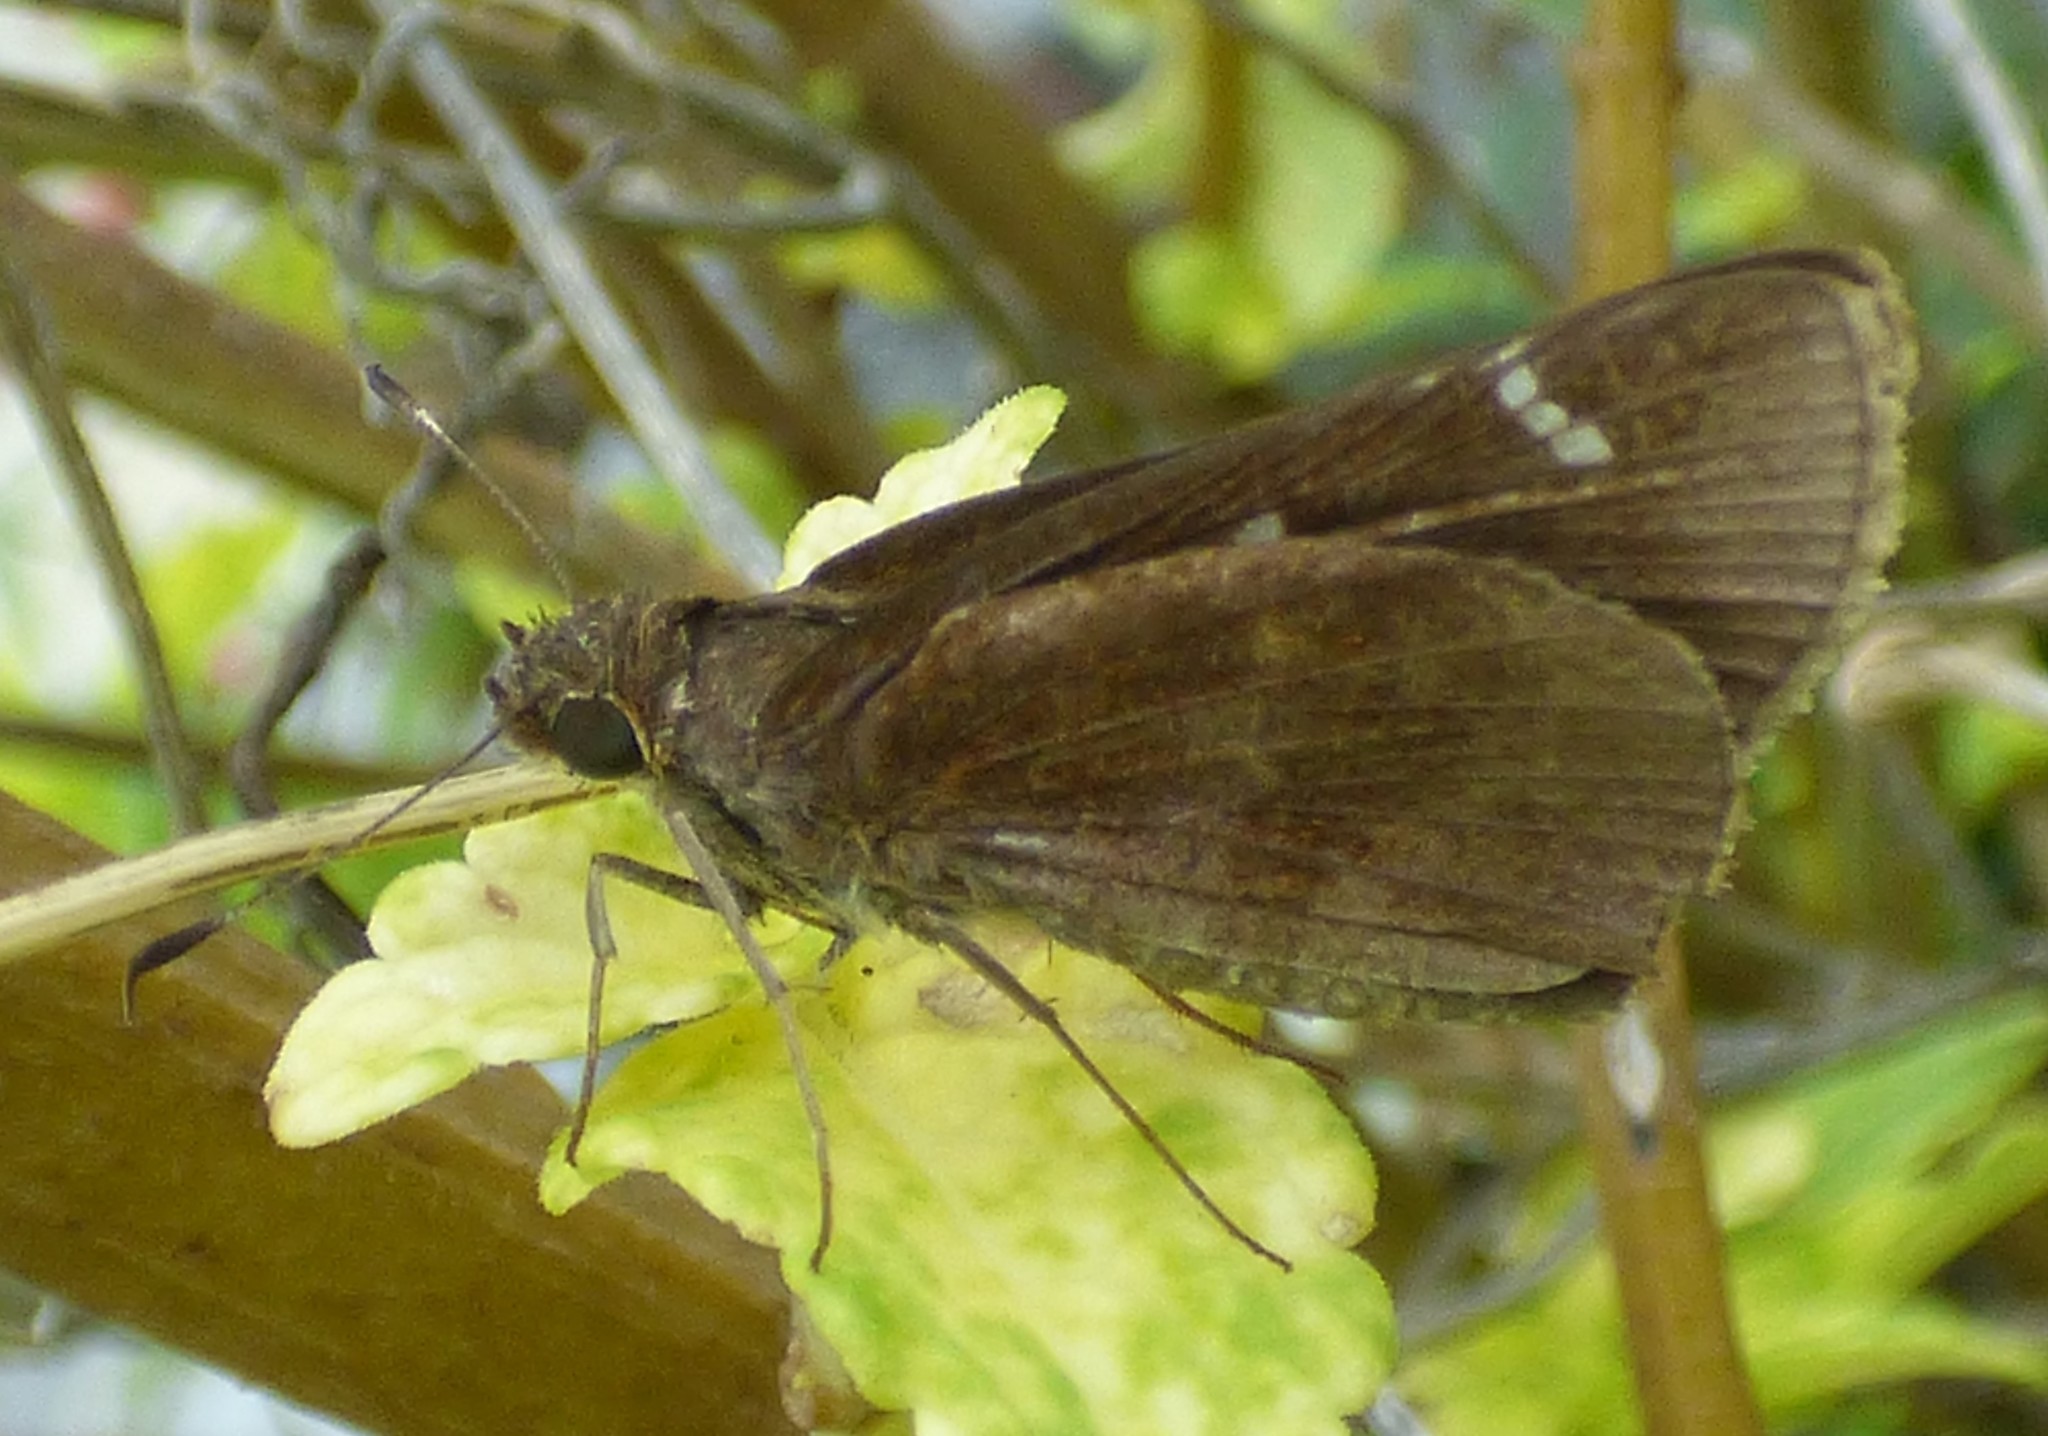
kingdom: Animalia
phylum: Arthropoda
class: Insecta
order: Lepidoptera
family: Hesperiidae
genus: Lerema
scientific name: Lerema accius
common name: Clouded skipper
